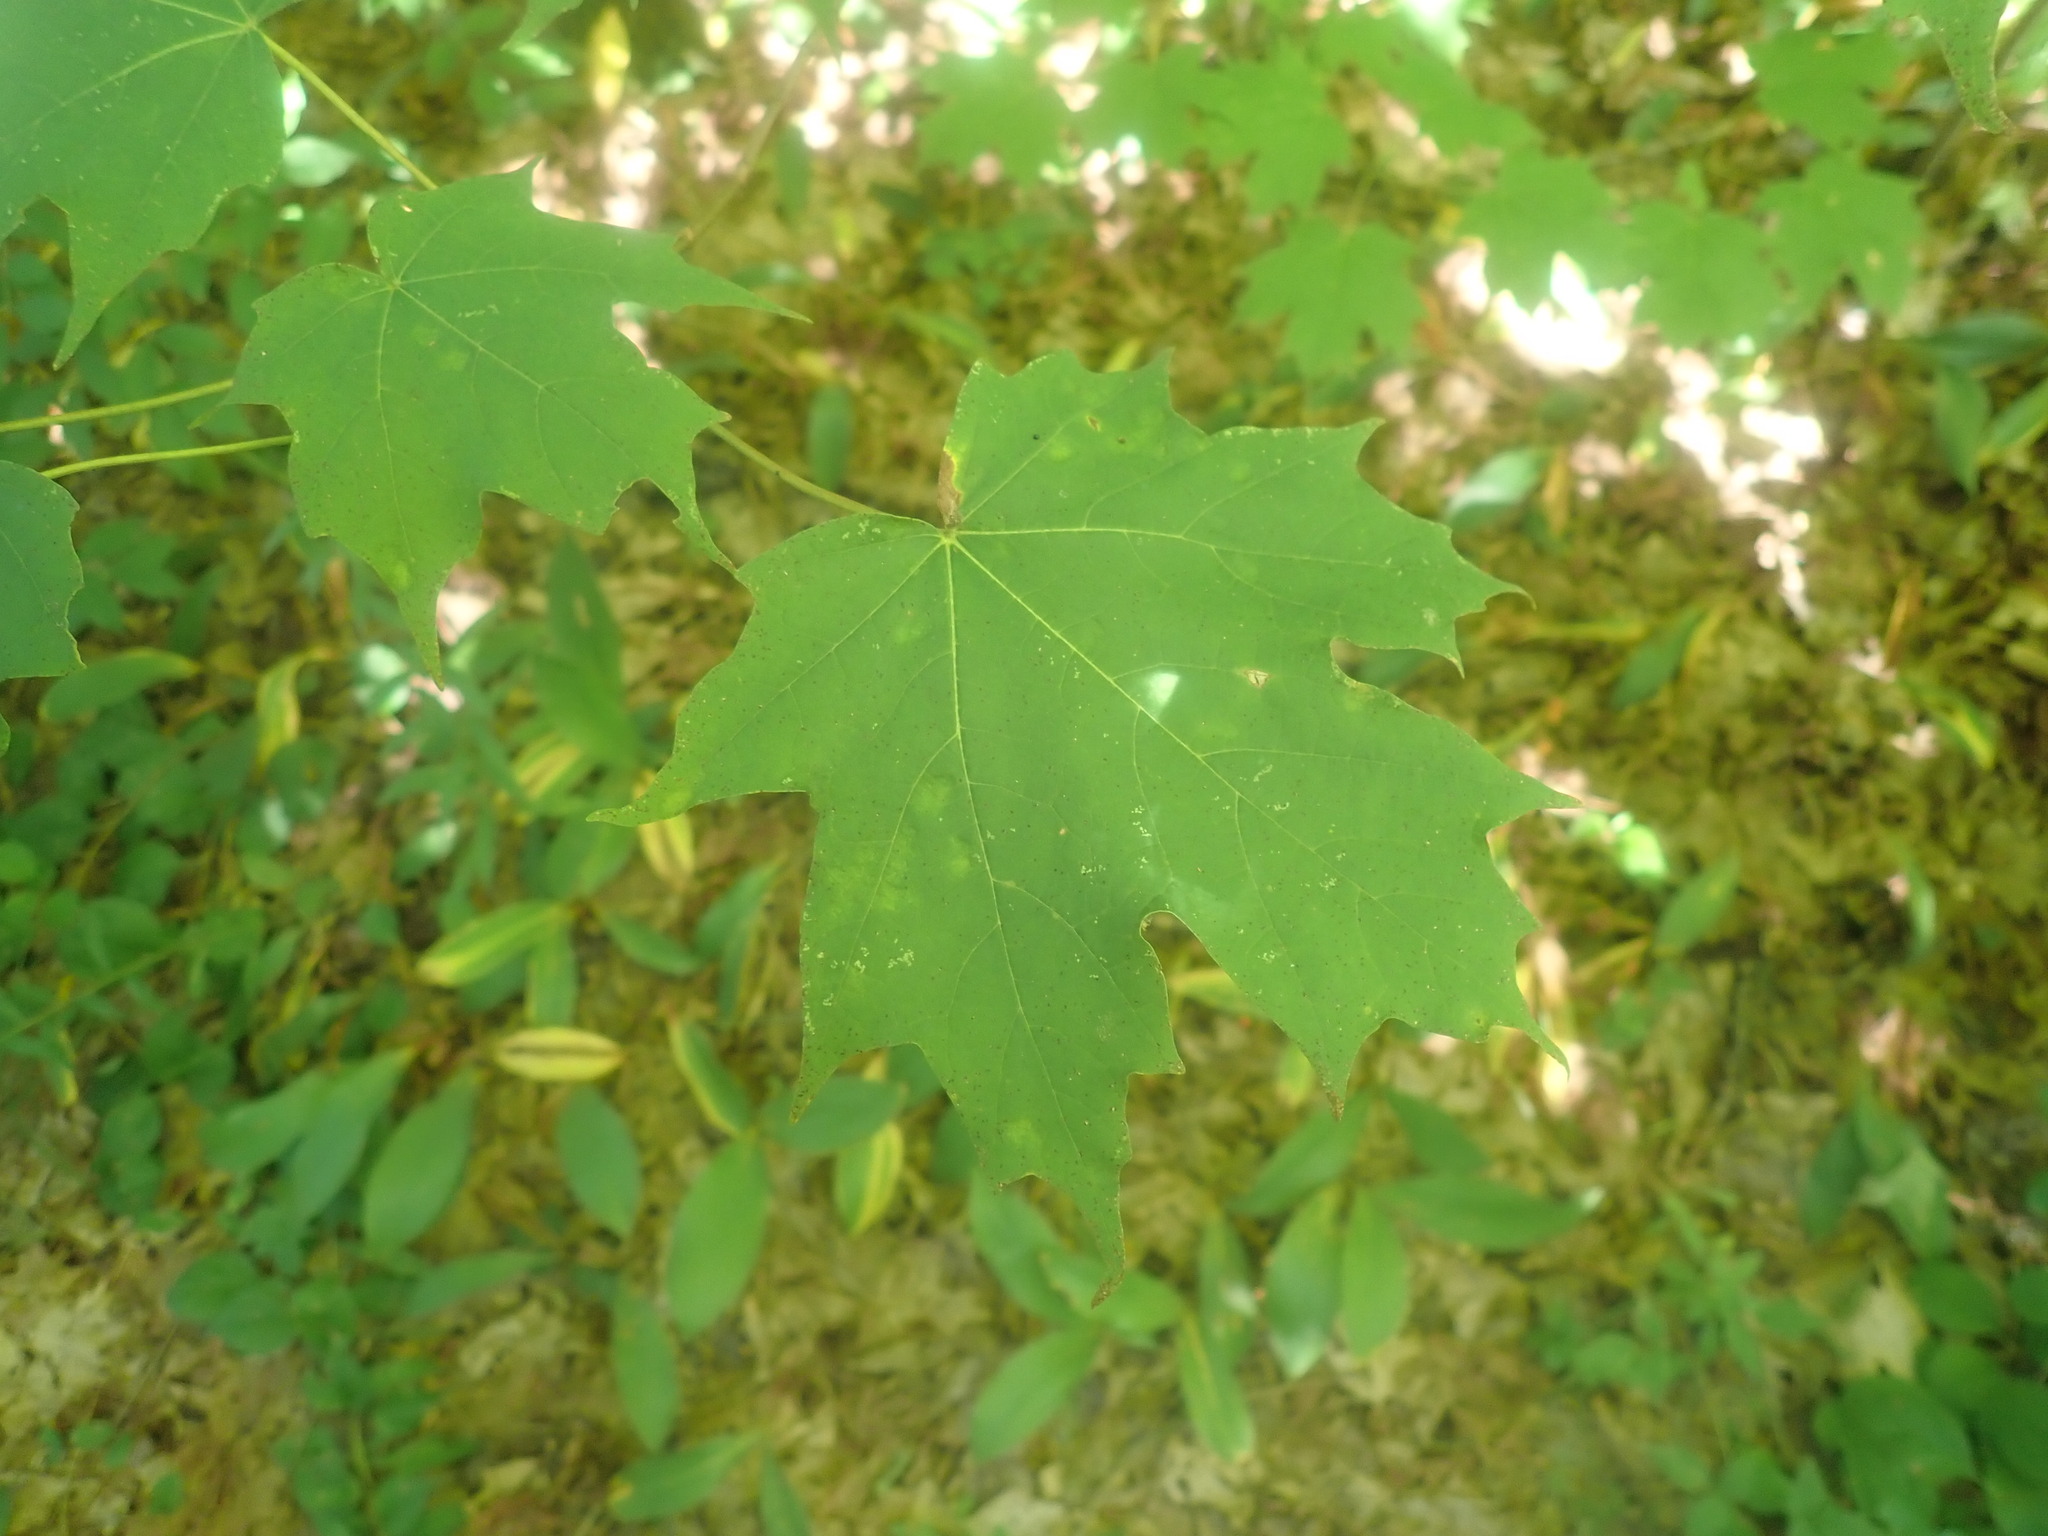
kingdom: Plantae
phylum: Tracheophyta
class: Magnoliopsida
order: Sapindales
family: Sapindaceae
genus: Acer
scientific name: Acer saccharum
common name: Sugar maple
